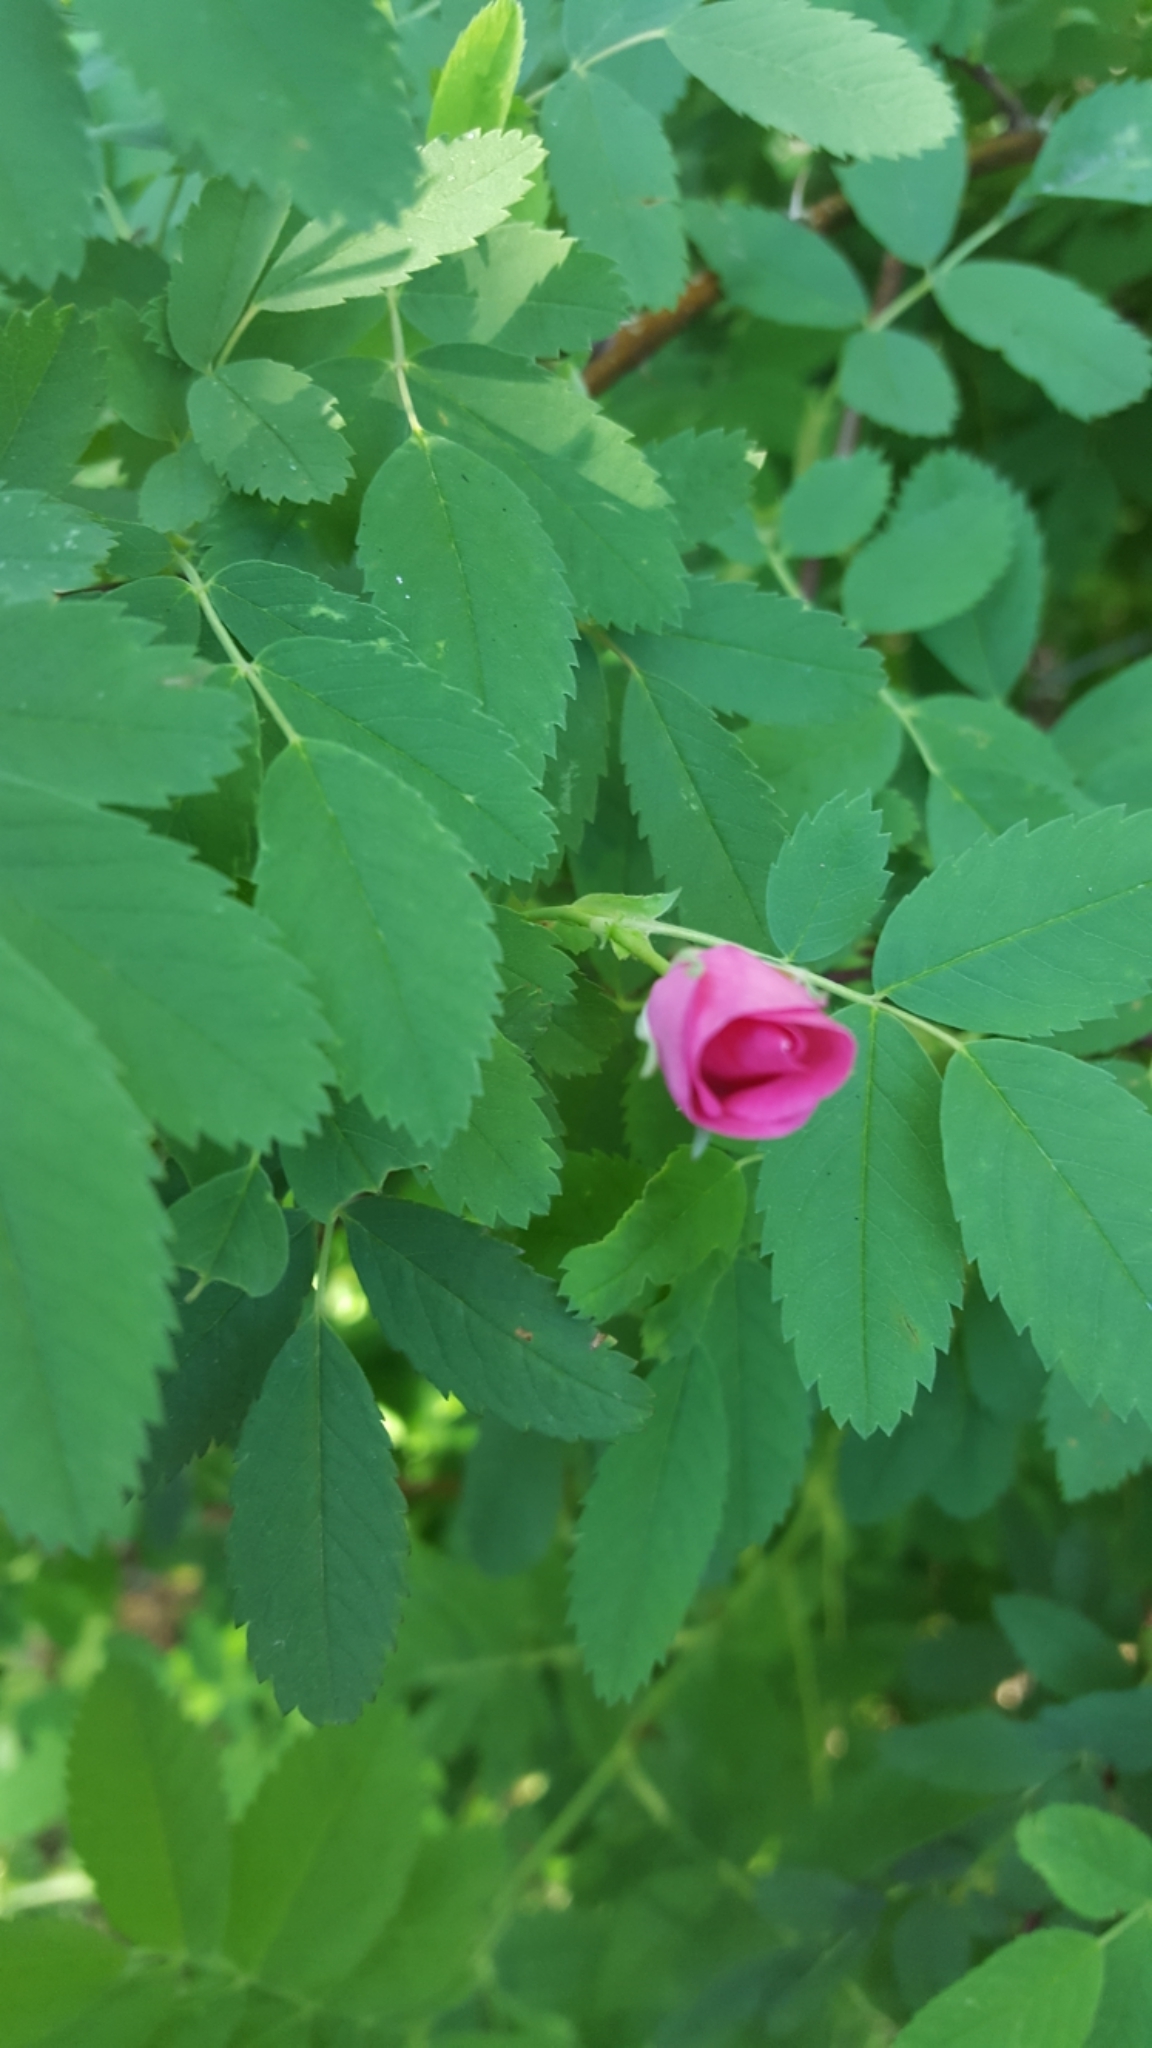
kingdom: Plantae
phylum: Tracheophyta
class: Magnoliopsida
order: Rosales
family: Rosaceae
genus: Rosa
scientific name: Rosa woodsii
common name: Woods's rose
